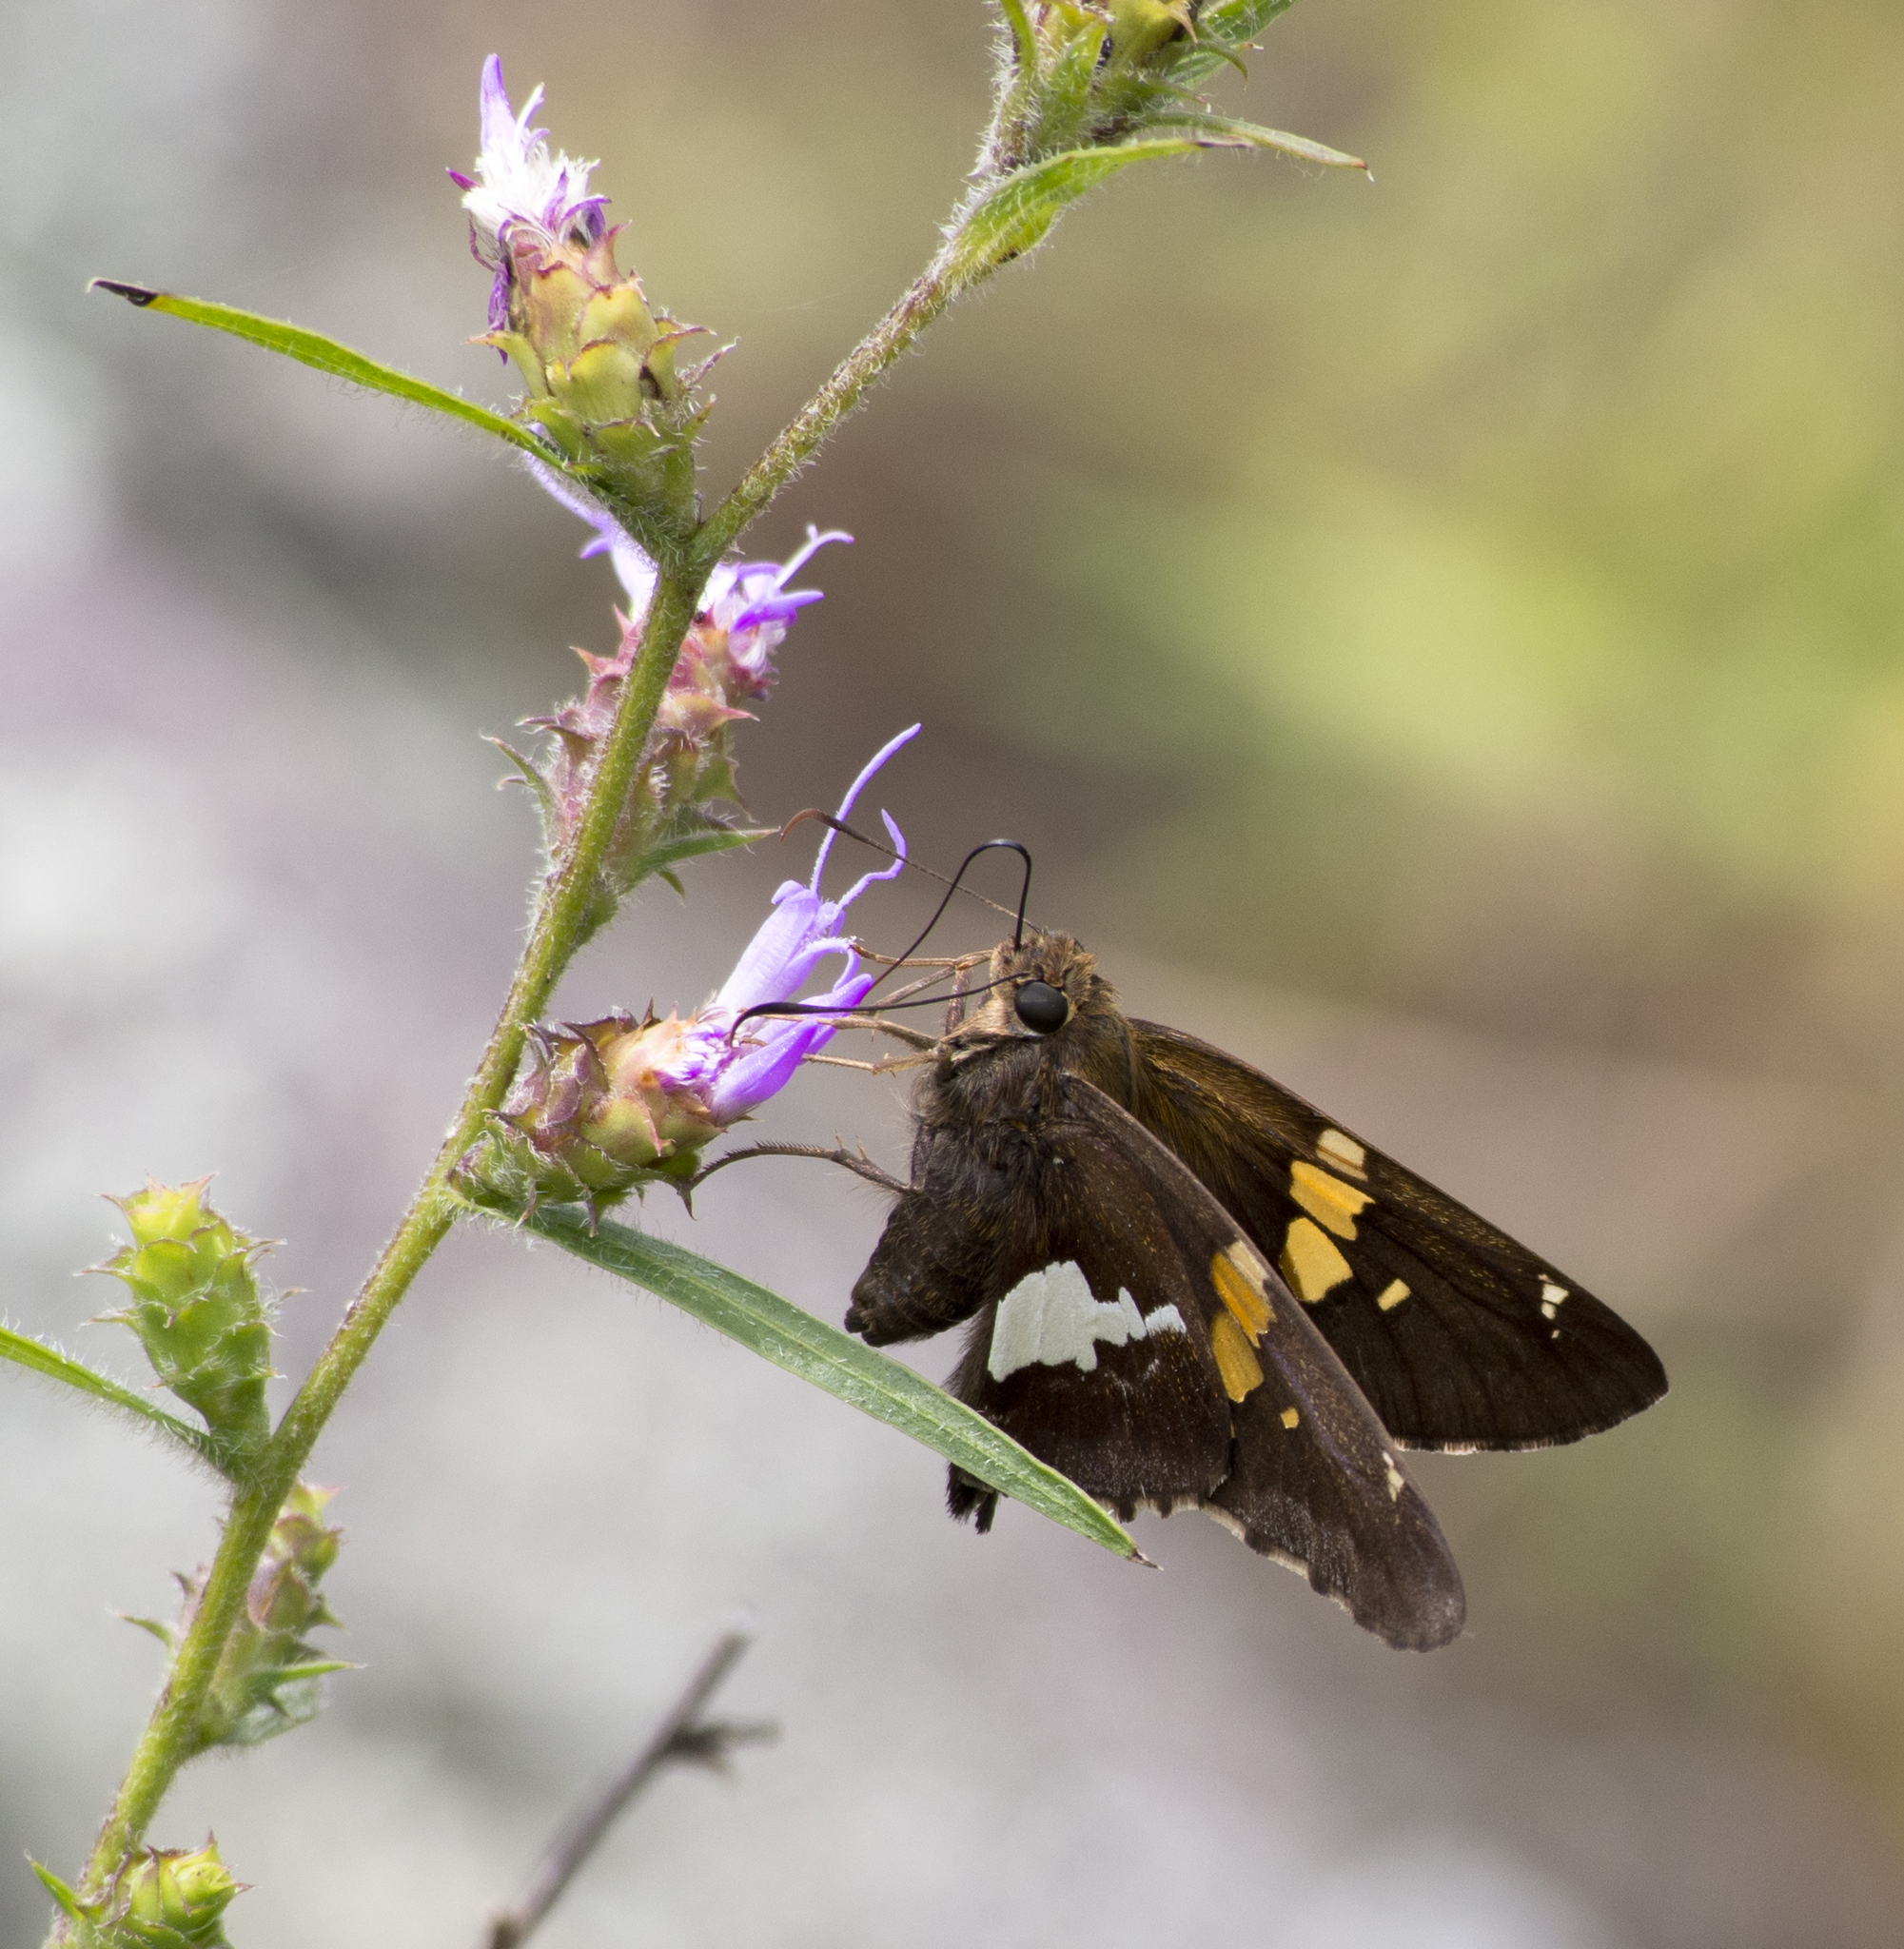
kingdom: Animalia
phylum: Arthropoda
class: Insecta
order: Lepidoptera
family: Hesperiidae
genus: Epargyreus
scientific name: Epargyreus clarus
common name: Silver-spotted skipper
